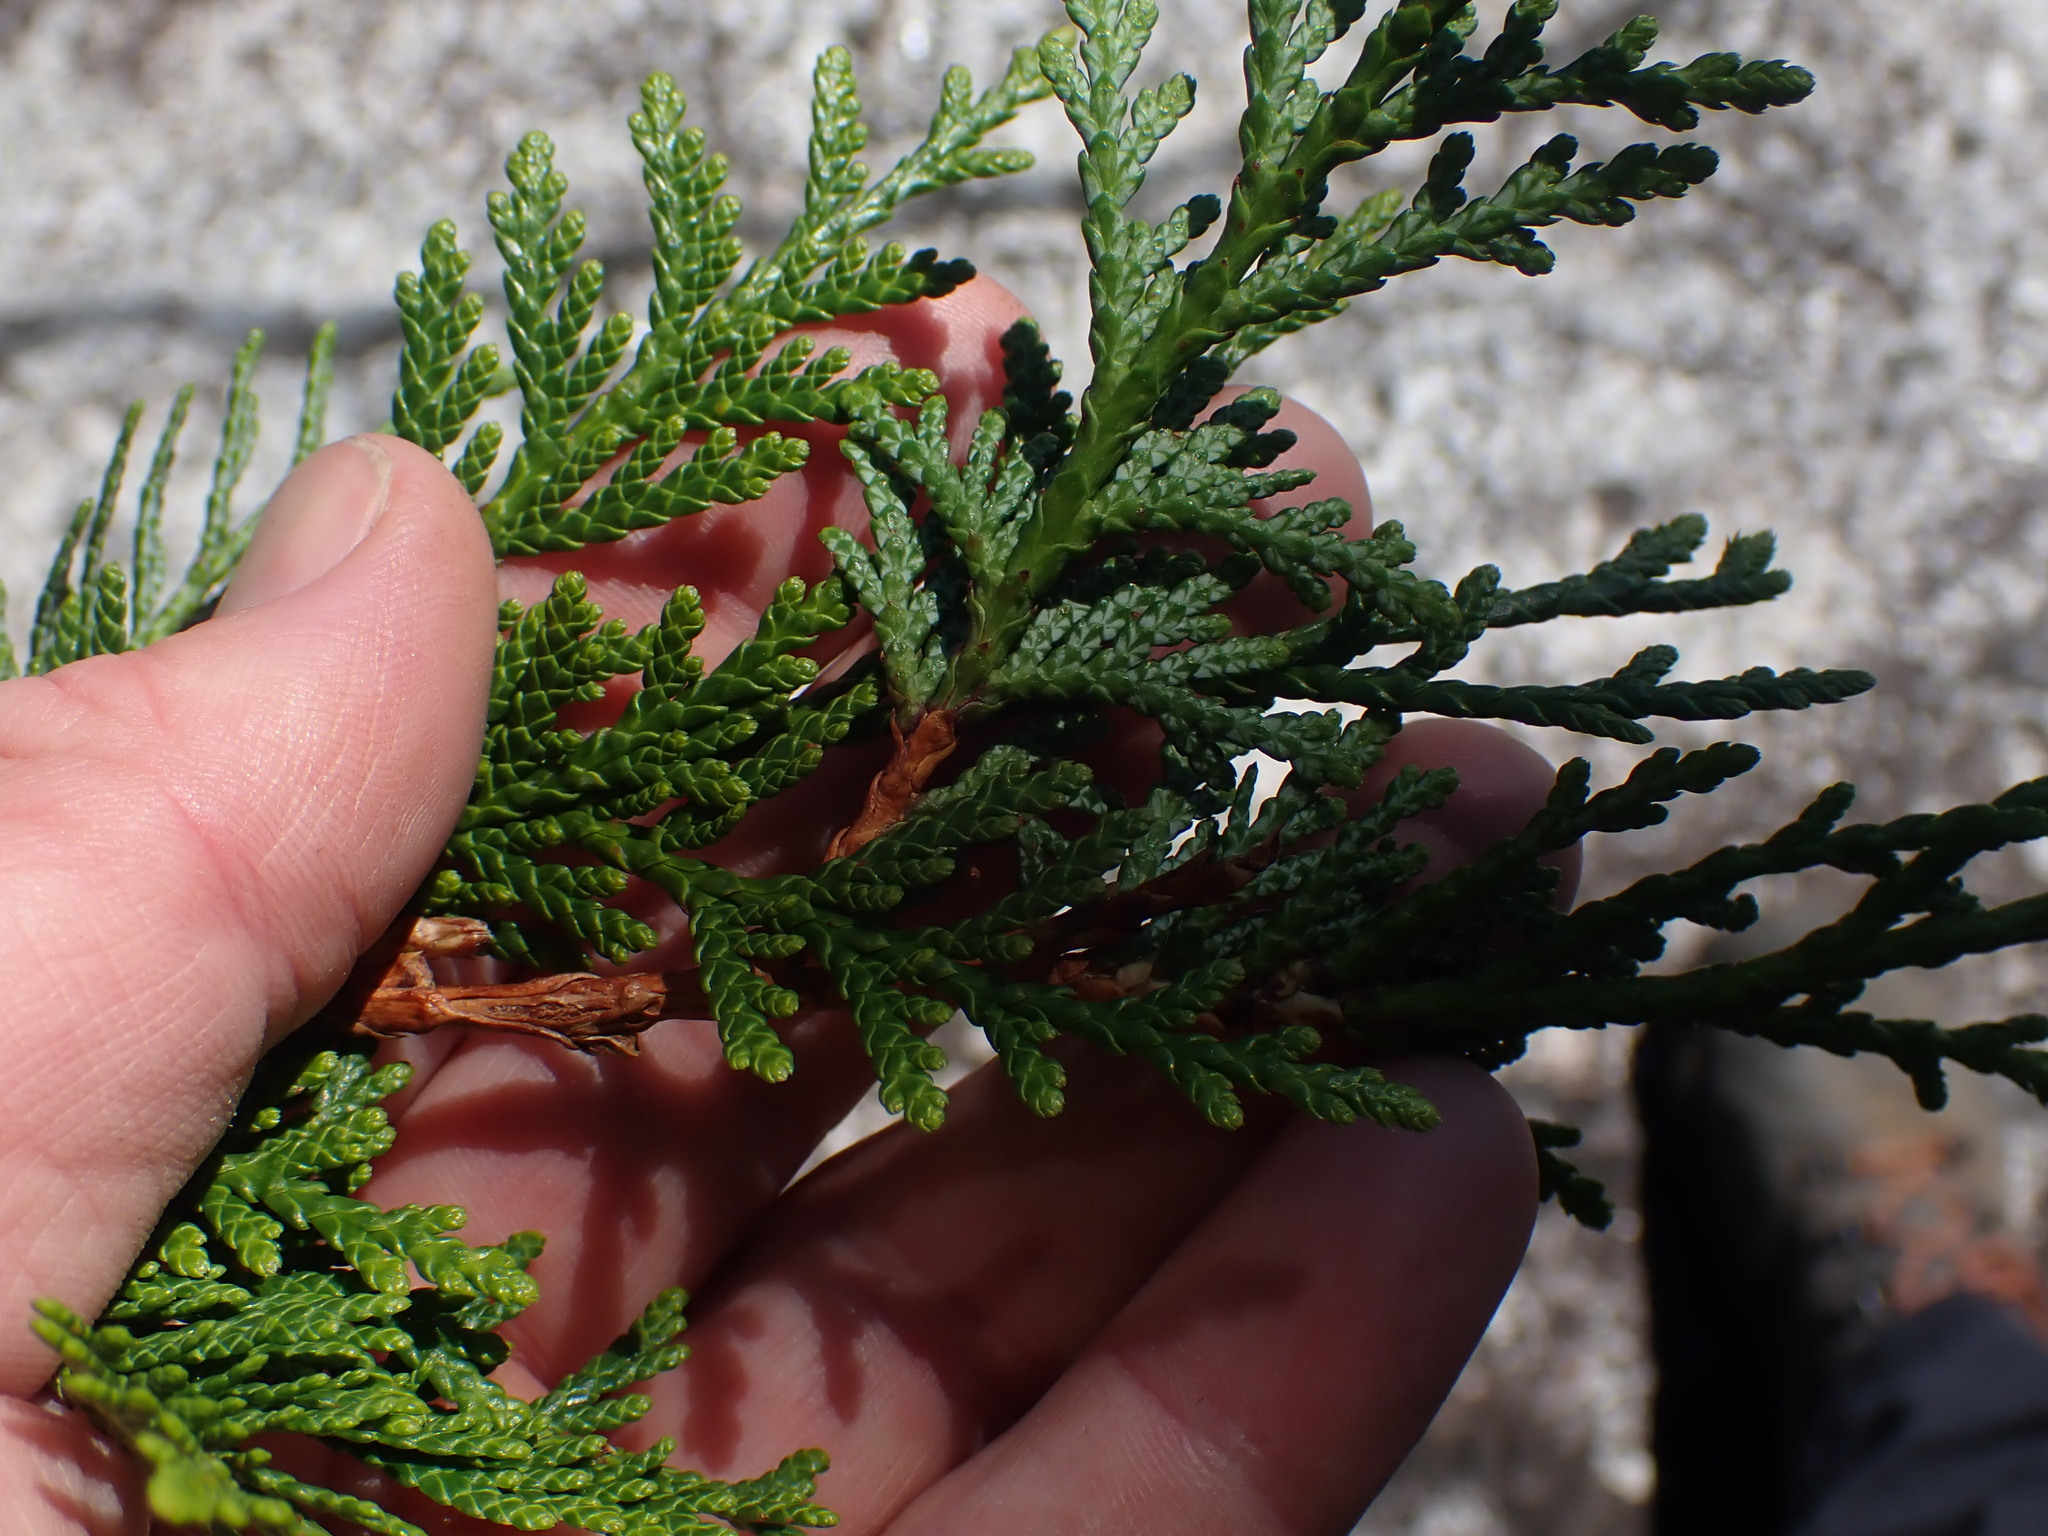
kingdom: Plantae
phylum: Tracheophyta
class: Pinopsida
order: Pinales
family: Cupressaceae
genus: Thuja
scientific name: Thuja plicata
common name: Western red-cedar
